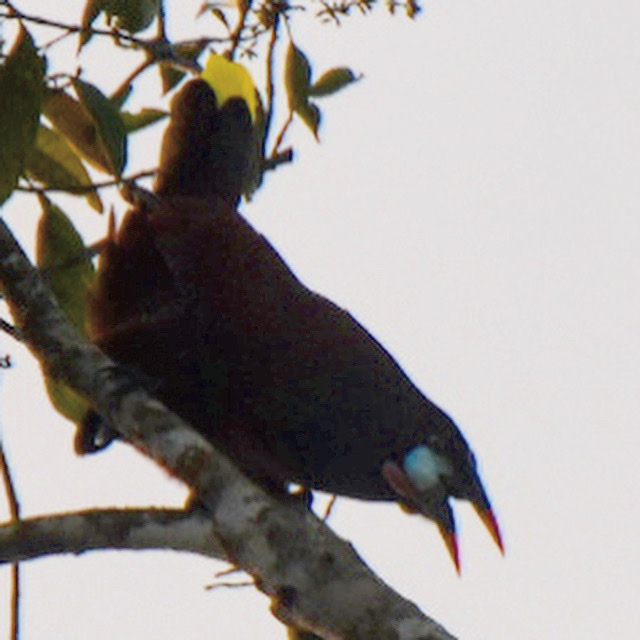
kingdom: Animalia
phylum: Chordata
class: Aves
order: Passeriformes
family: Icteridae
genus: Psarocolius
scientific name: Psarocolius montezuma
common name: Montezuma oropendola
